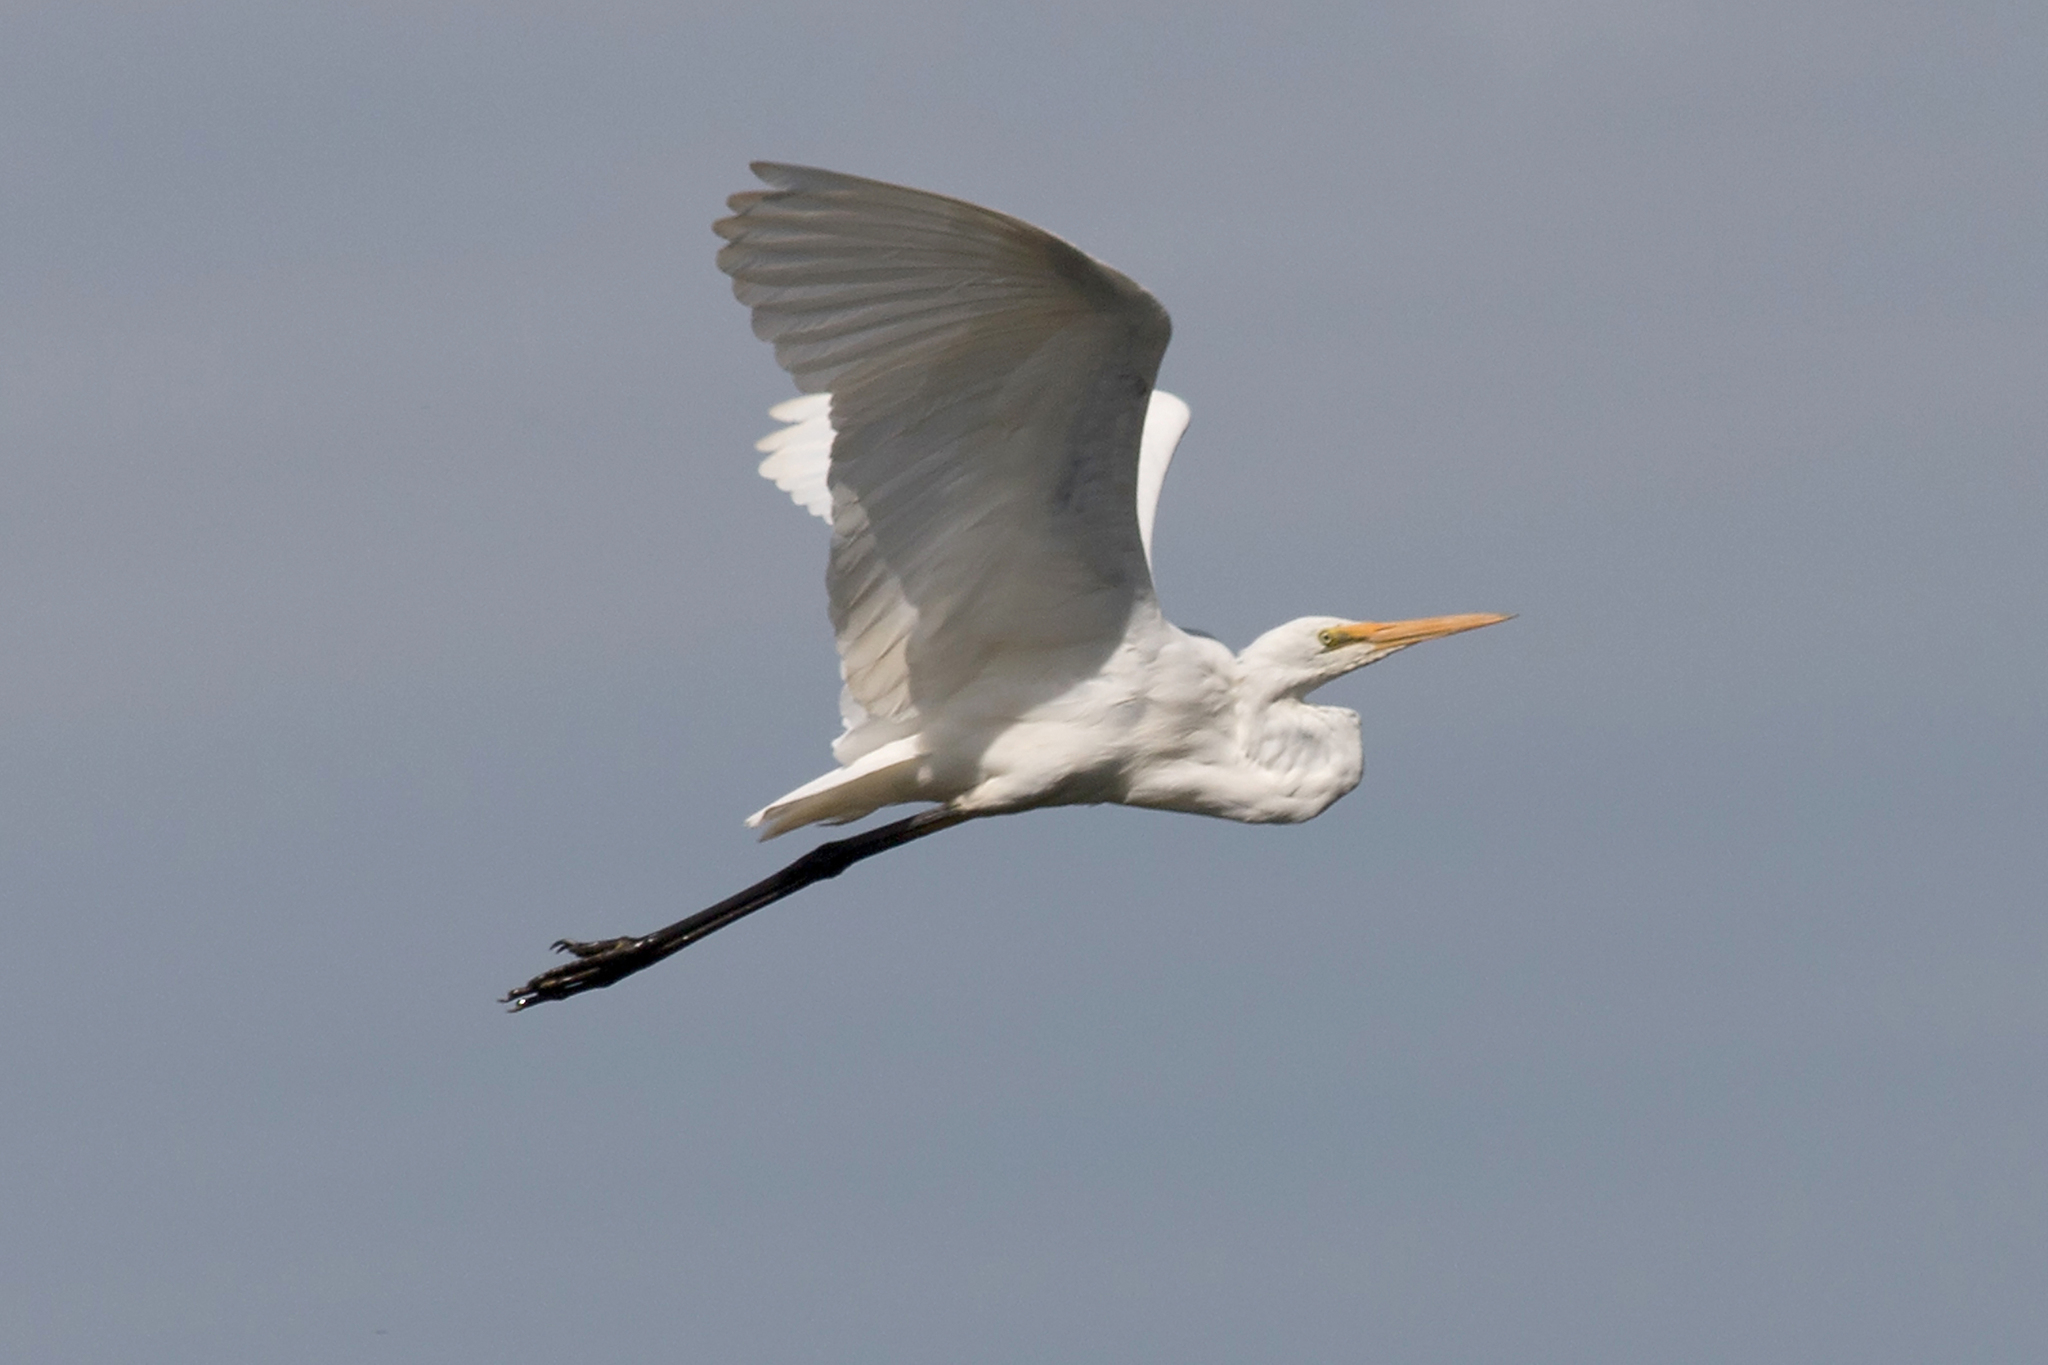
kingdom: Animalia
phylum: Chordata
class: Aves
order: Pelecaniformes
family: Ardeidae
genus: Ardea
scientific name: Ardea alba
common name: Great egret
